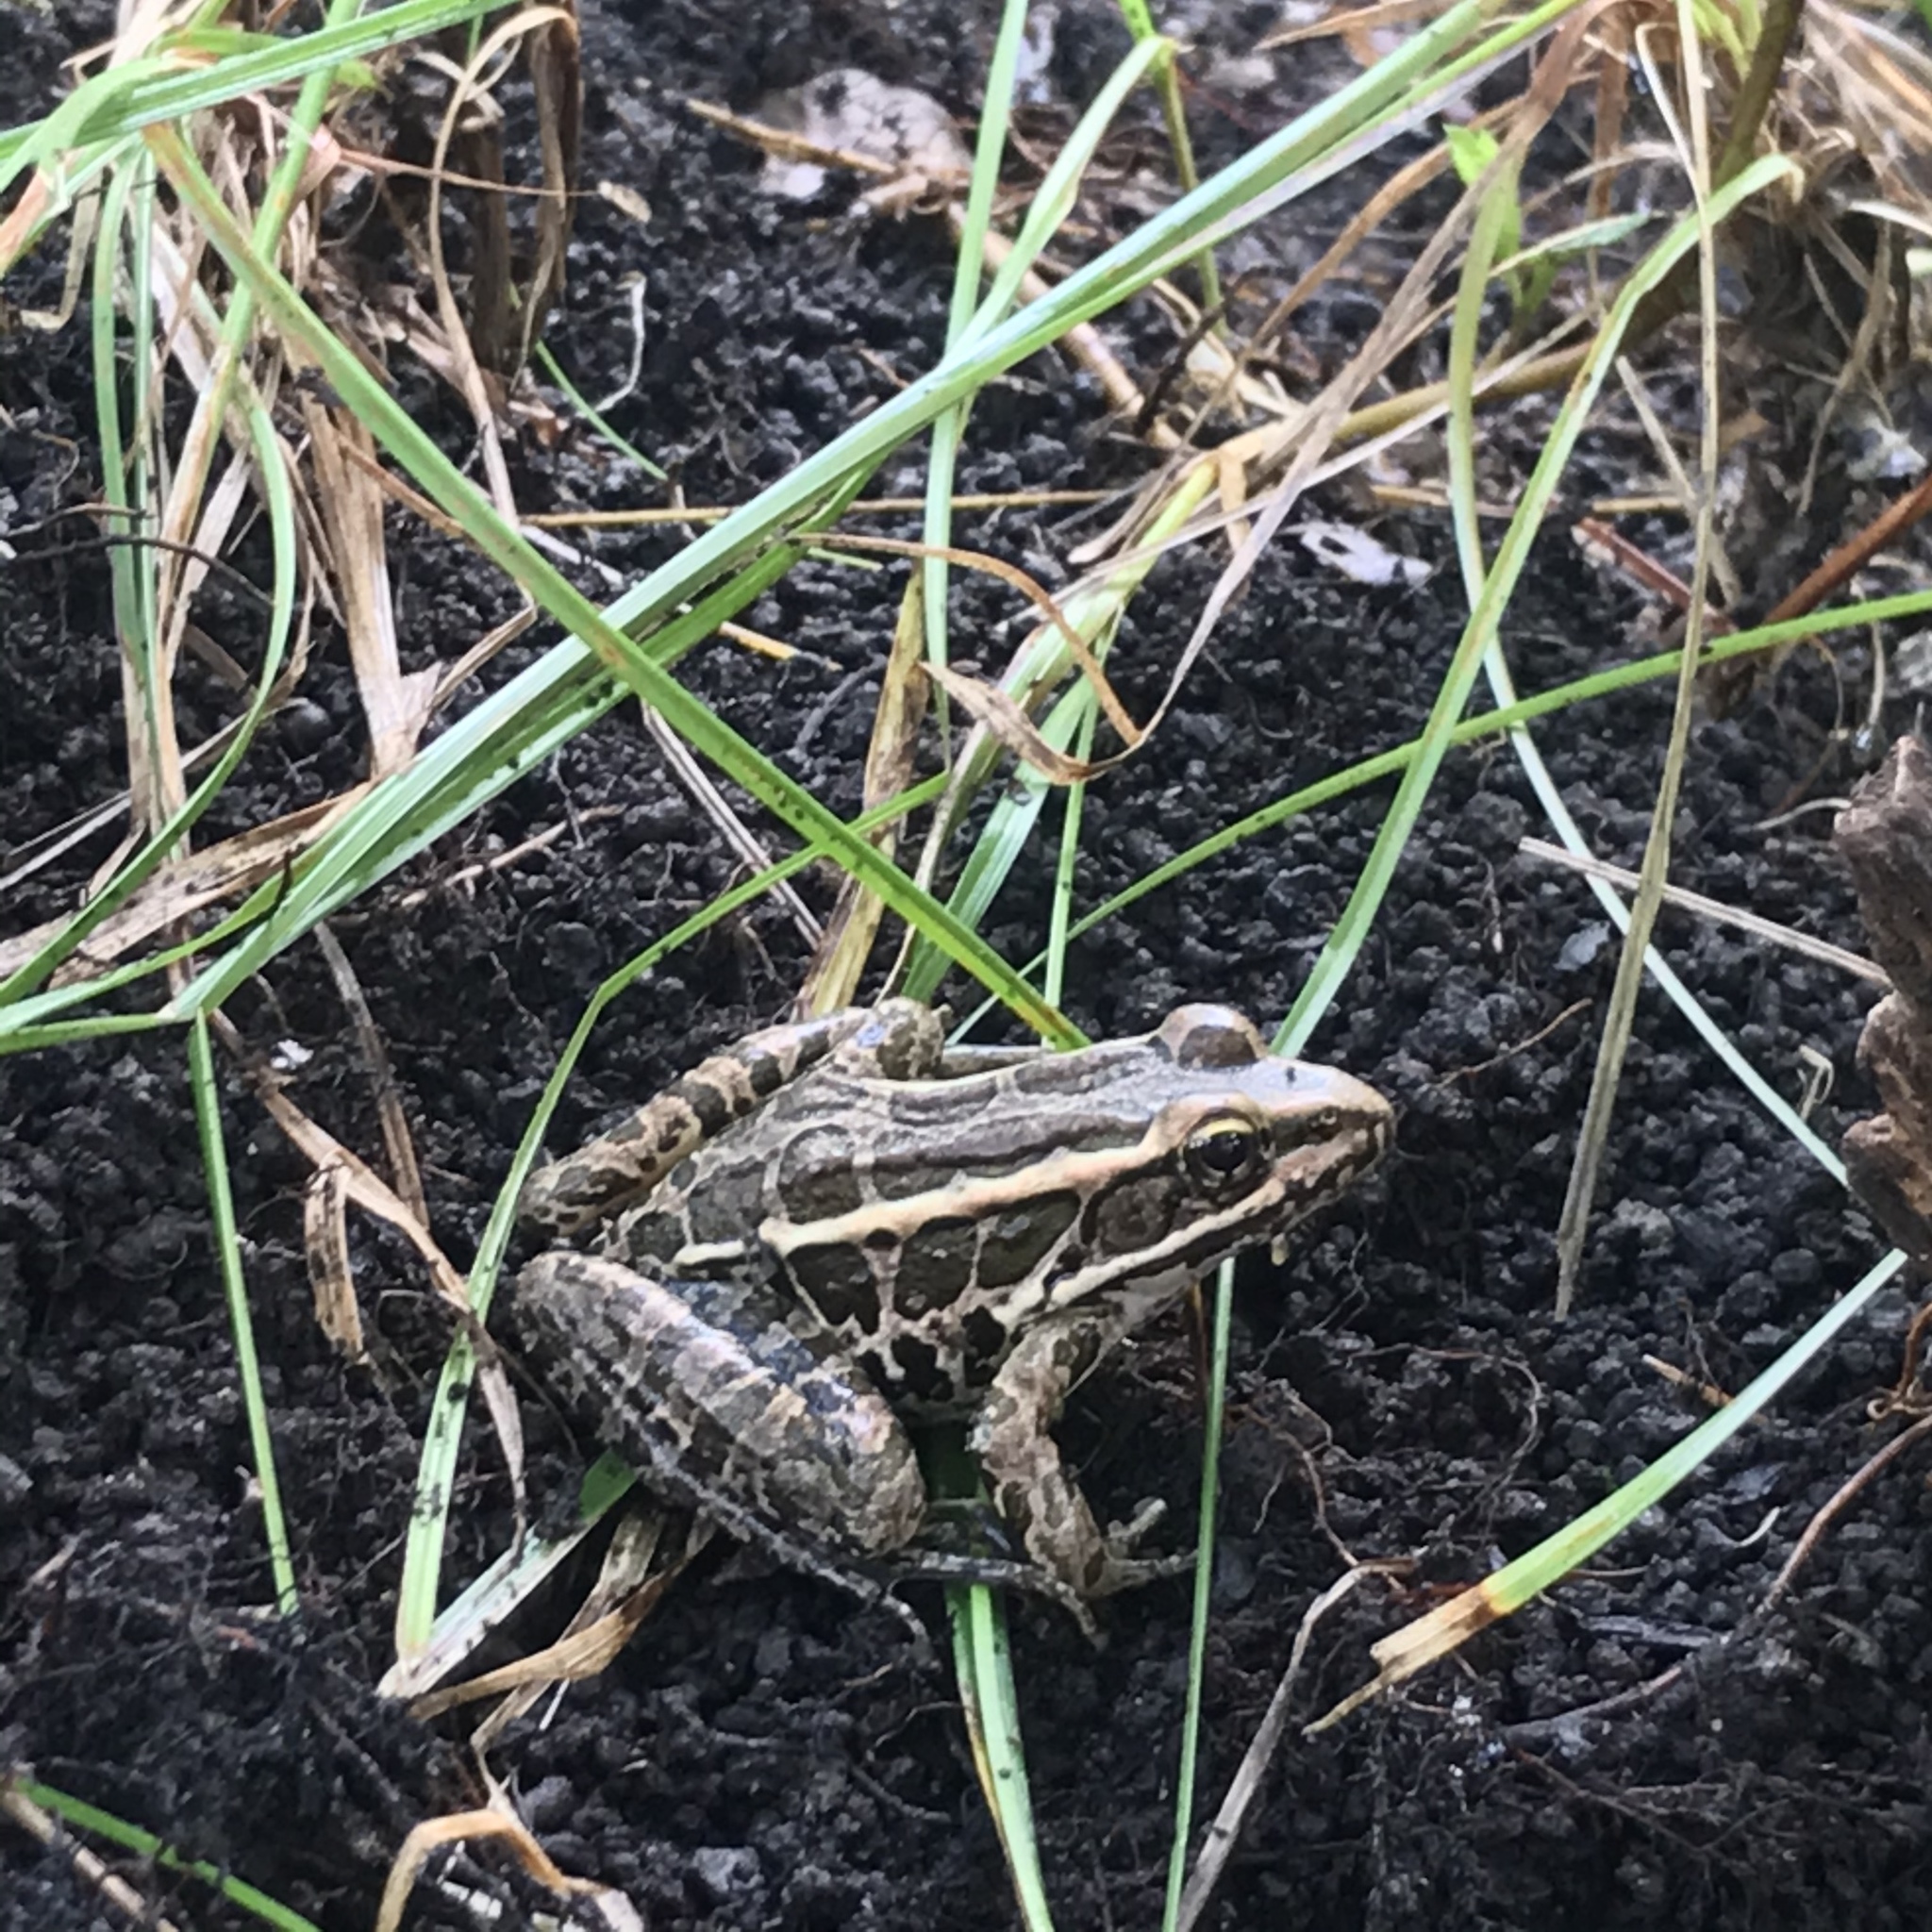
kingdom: Animalia
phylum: Chordata
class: Amphibia
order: Anura
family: Ranidae
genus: Lithobates
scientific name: Lithobates palustris
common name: Pickerel frog
